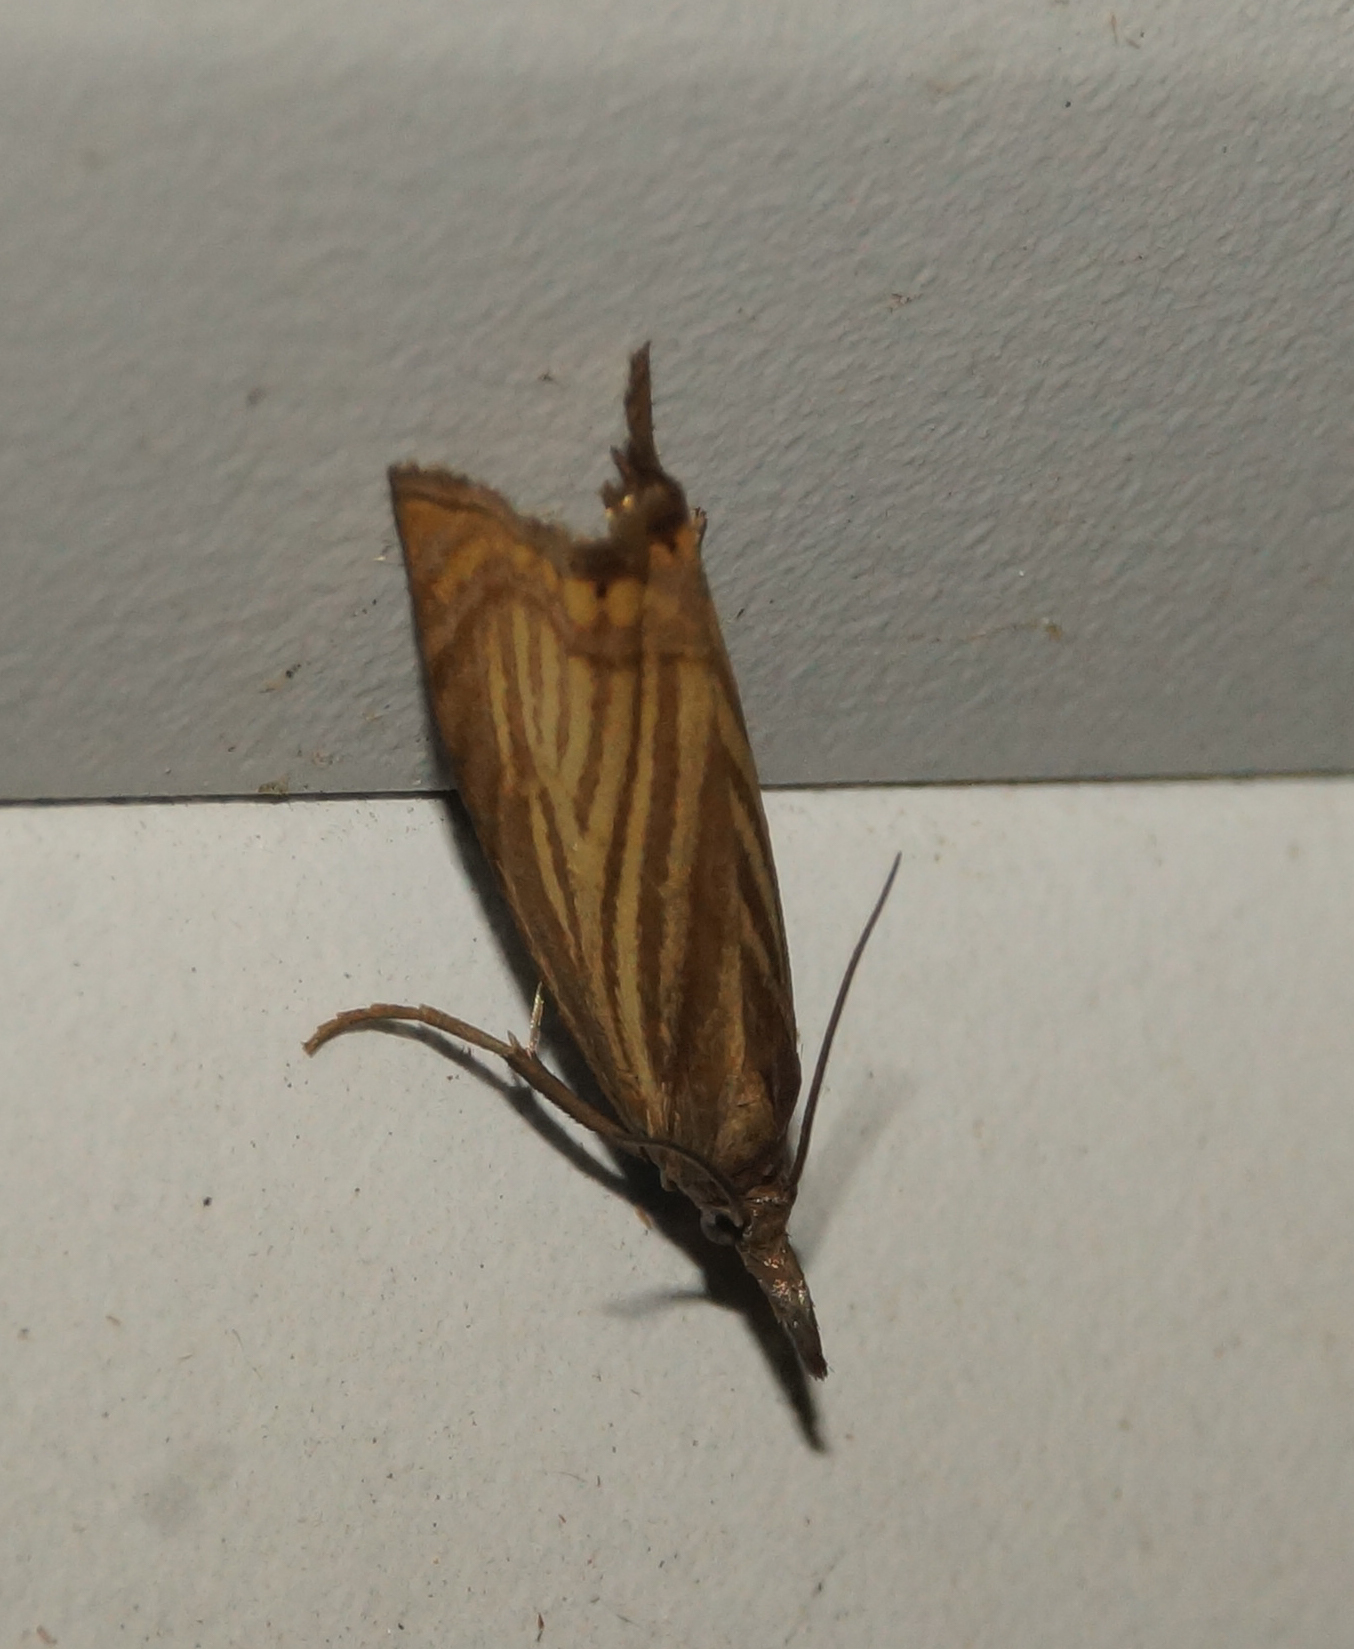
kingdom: Animalia
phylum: Arthropoda
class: Insecta
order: Lepidoptera
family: Crambidae
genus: Chrysoteuchia
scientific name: Chrysoteuchia culmella
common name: Garden grass-veneer
